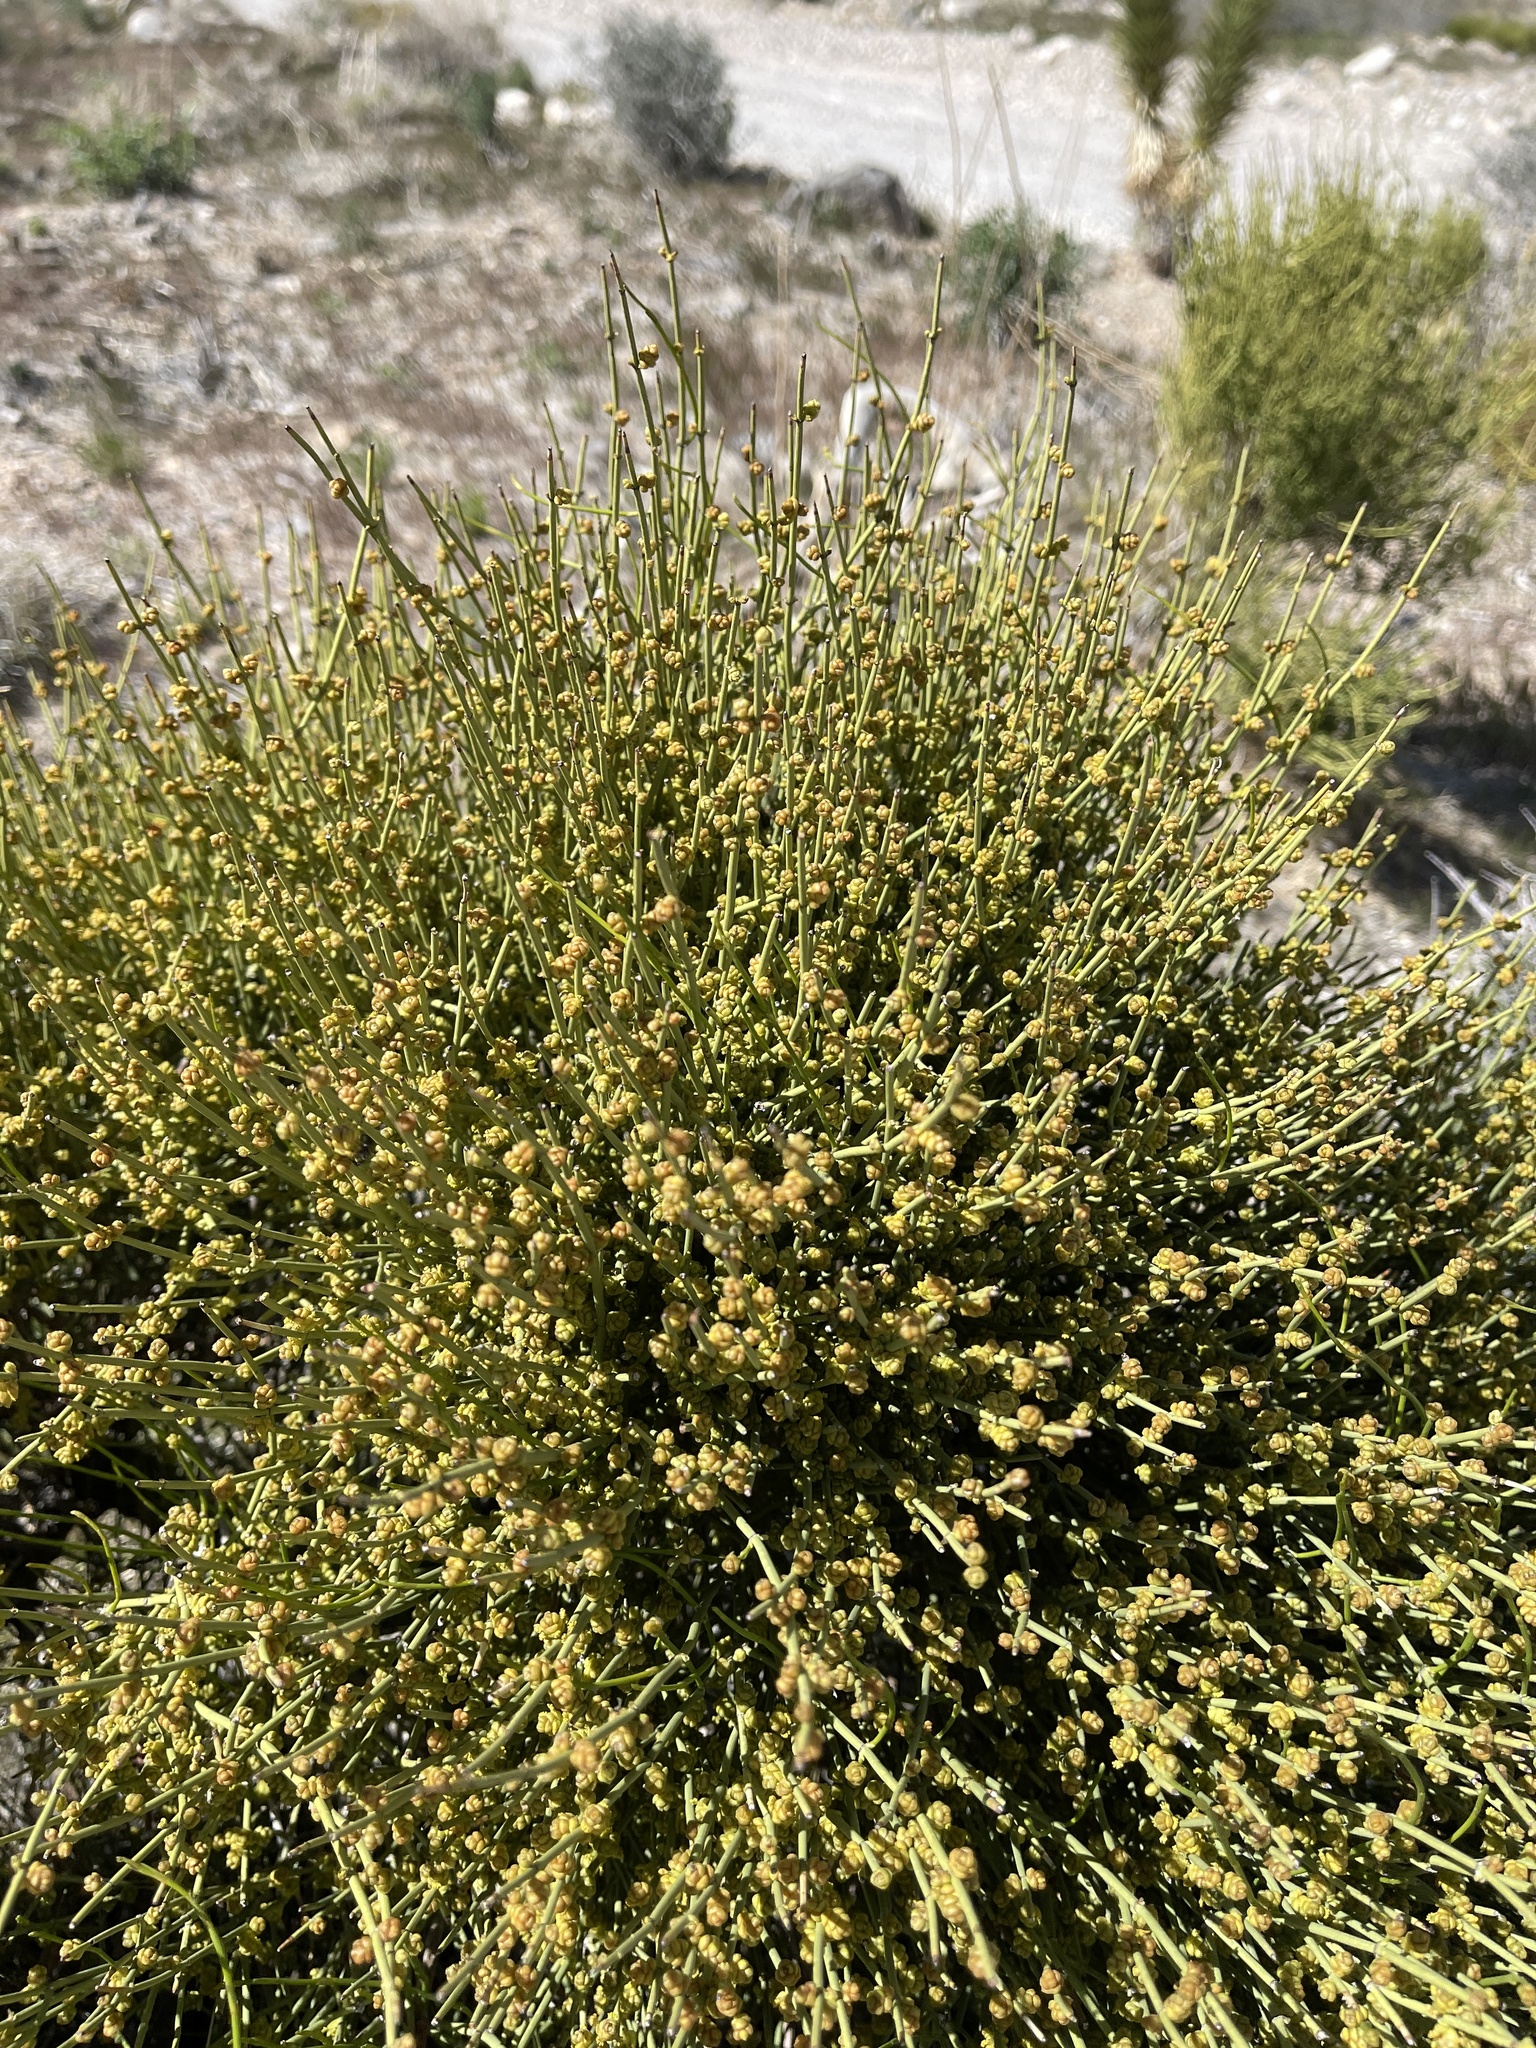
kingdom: Plantae
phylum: Tracheophyta
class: Gnetopsida
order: Ephedrales
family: Ephedraceae
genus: Ephedra
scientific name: Ephedra viridis
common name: Green ephedra
